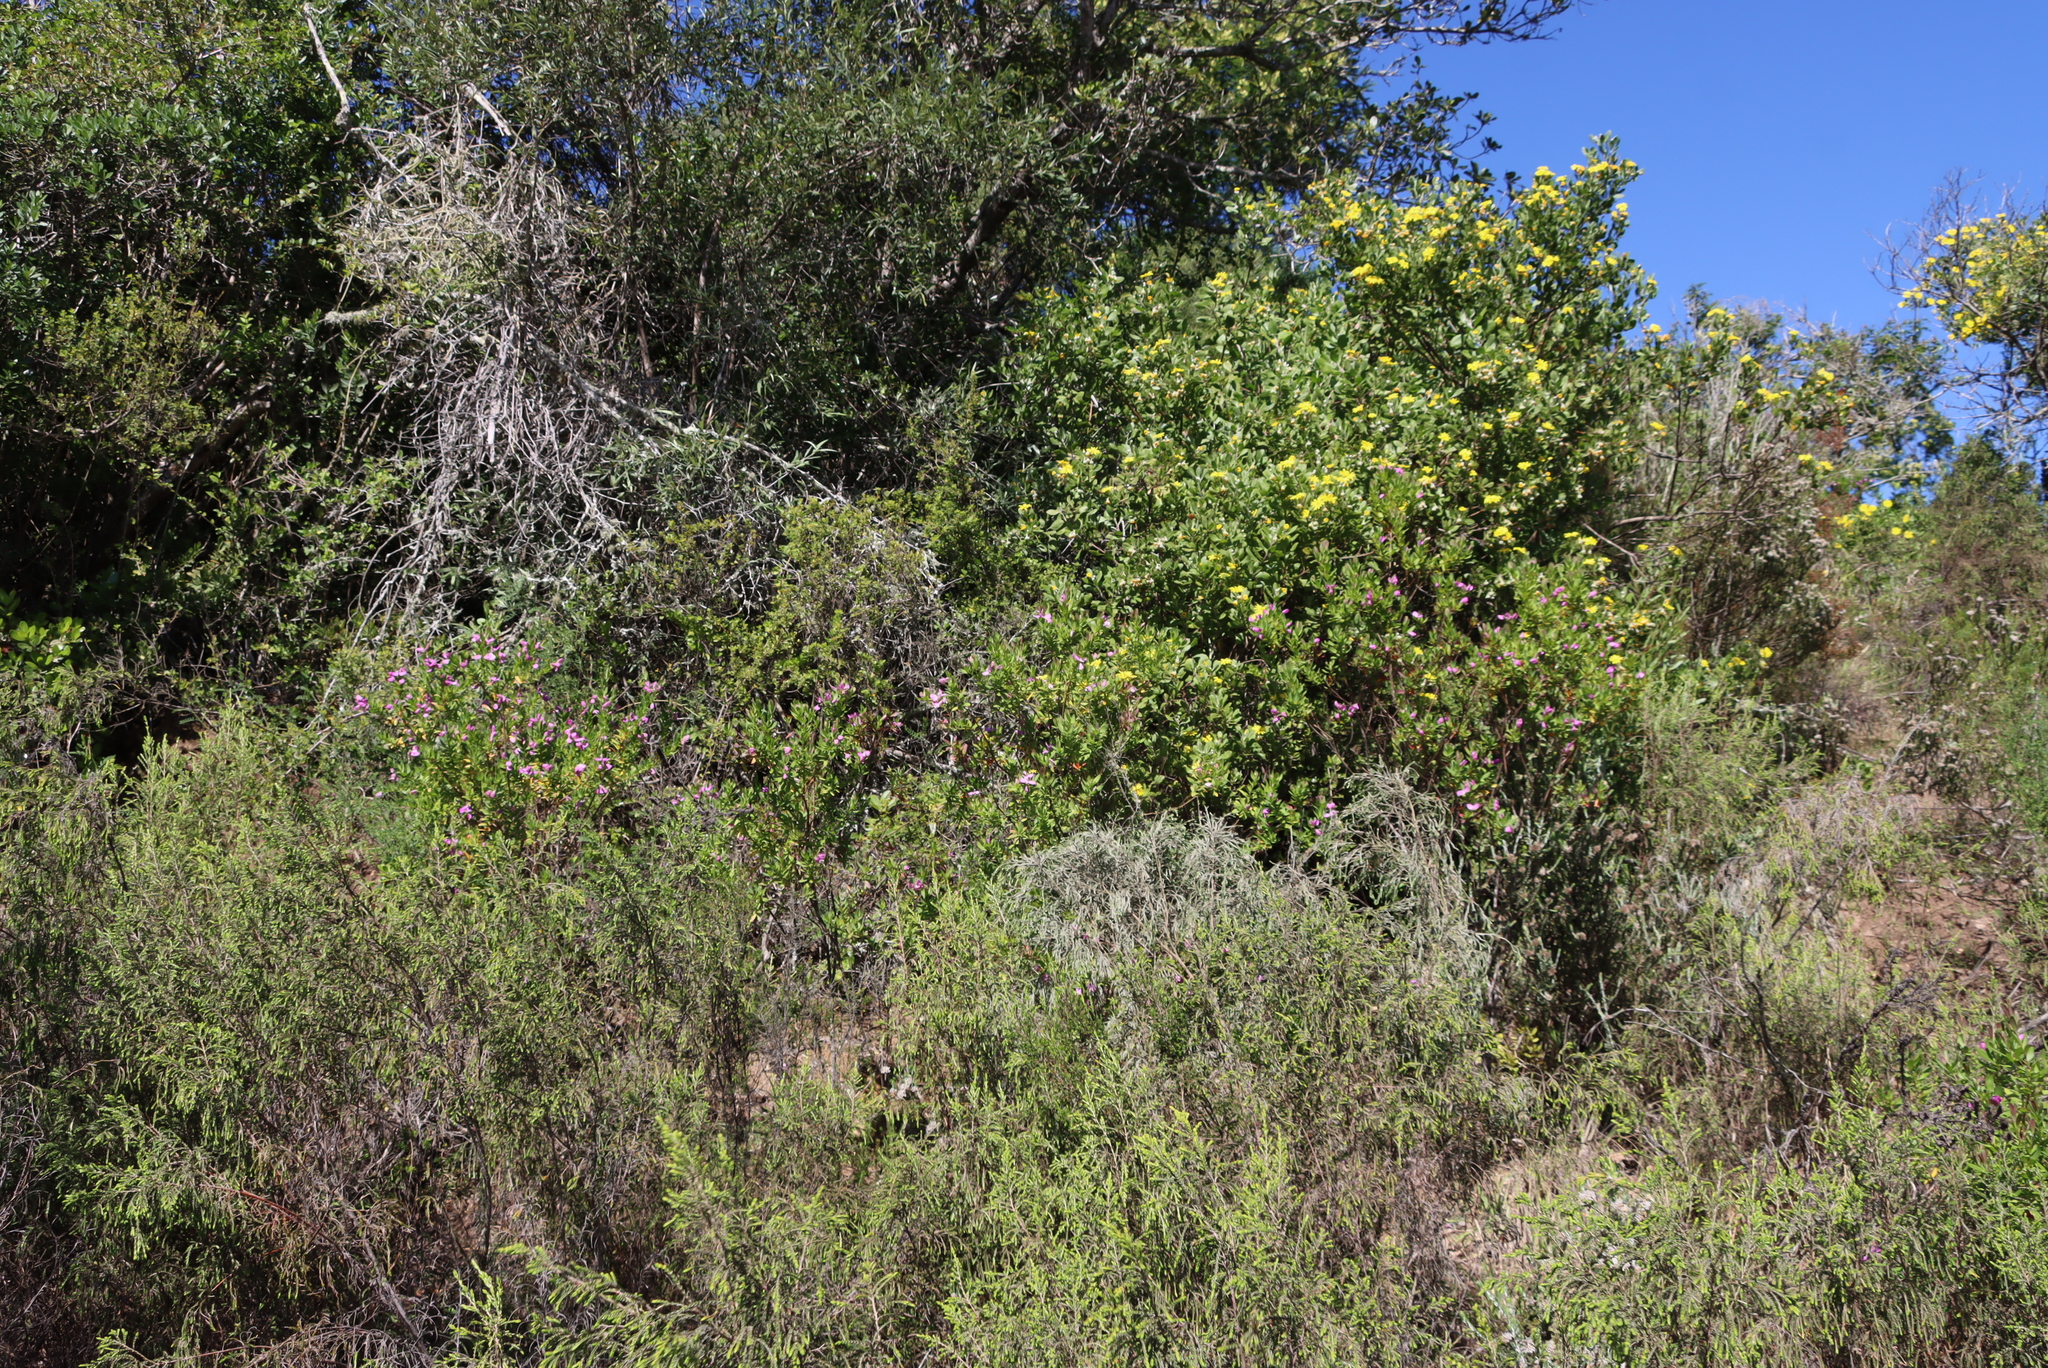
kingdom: Plantae
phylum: Tracheophyta
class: Magnoliopsida
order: Fabales
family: Polygalaceae
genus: Polygala
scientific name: Polygala myrtifolia
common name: Myrtle-leaf milkwort
